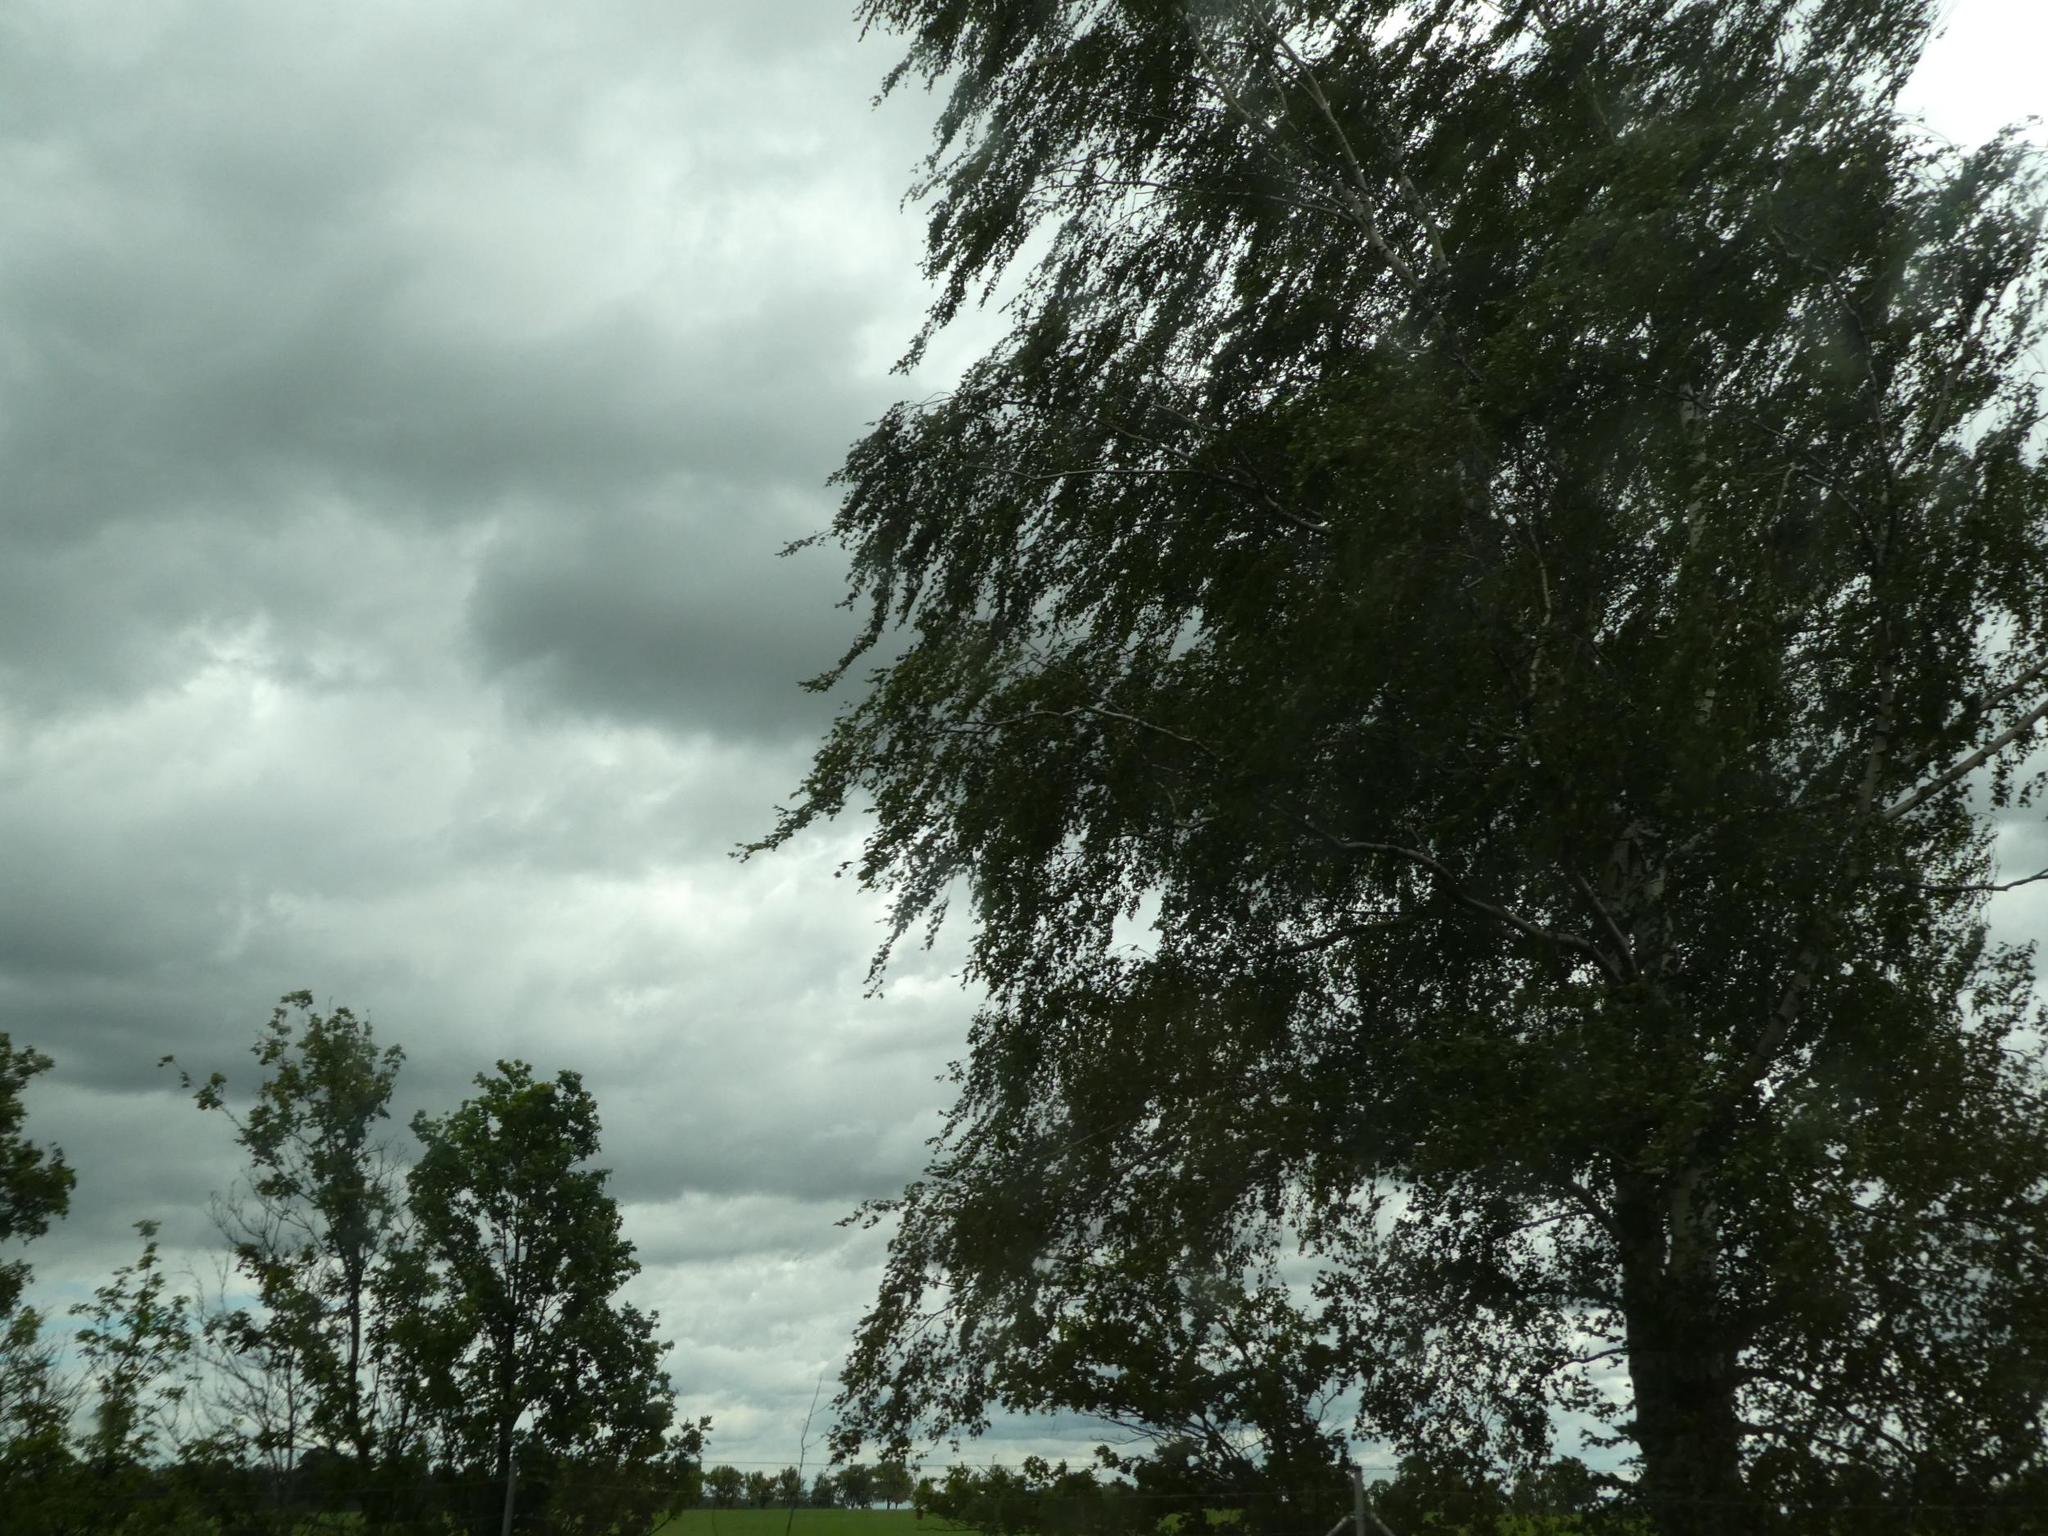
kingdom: Plantae
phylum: Tracheophyta
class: Magnoliopsida
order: Fagales
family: Betulaceae
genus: Betula
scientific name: Betula pendula
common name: Silver birch
